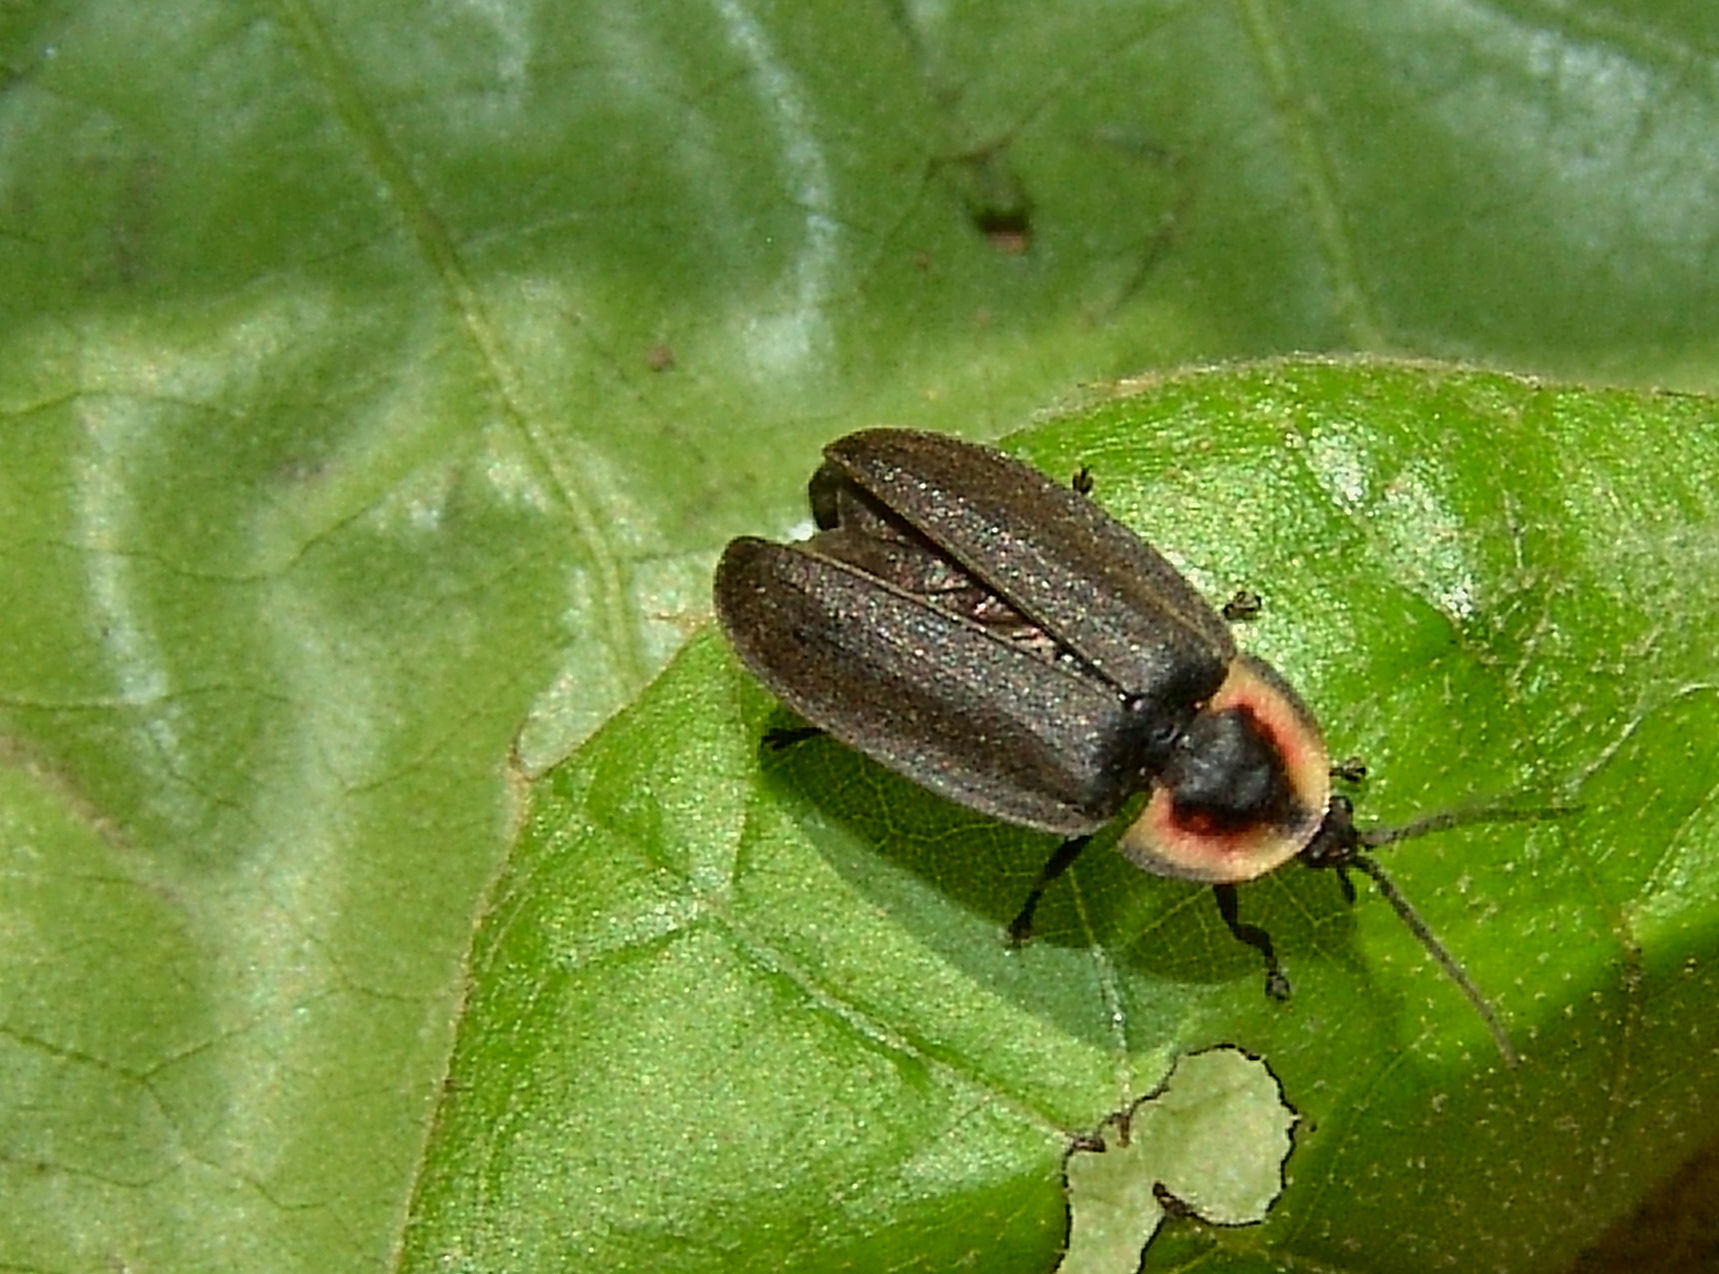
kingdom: Animalia
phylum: Arthropoda
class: Insecta
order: Coleoptera
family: Lampyridae
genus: Photinus
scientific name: Photinus corrusca
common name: Winter firefly
